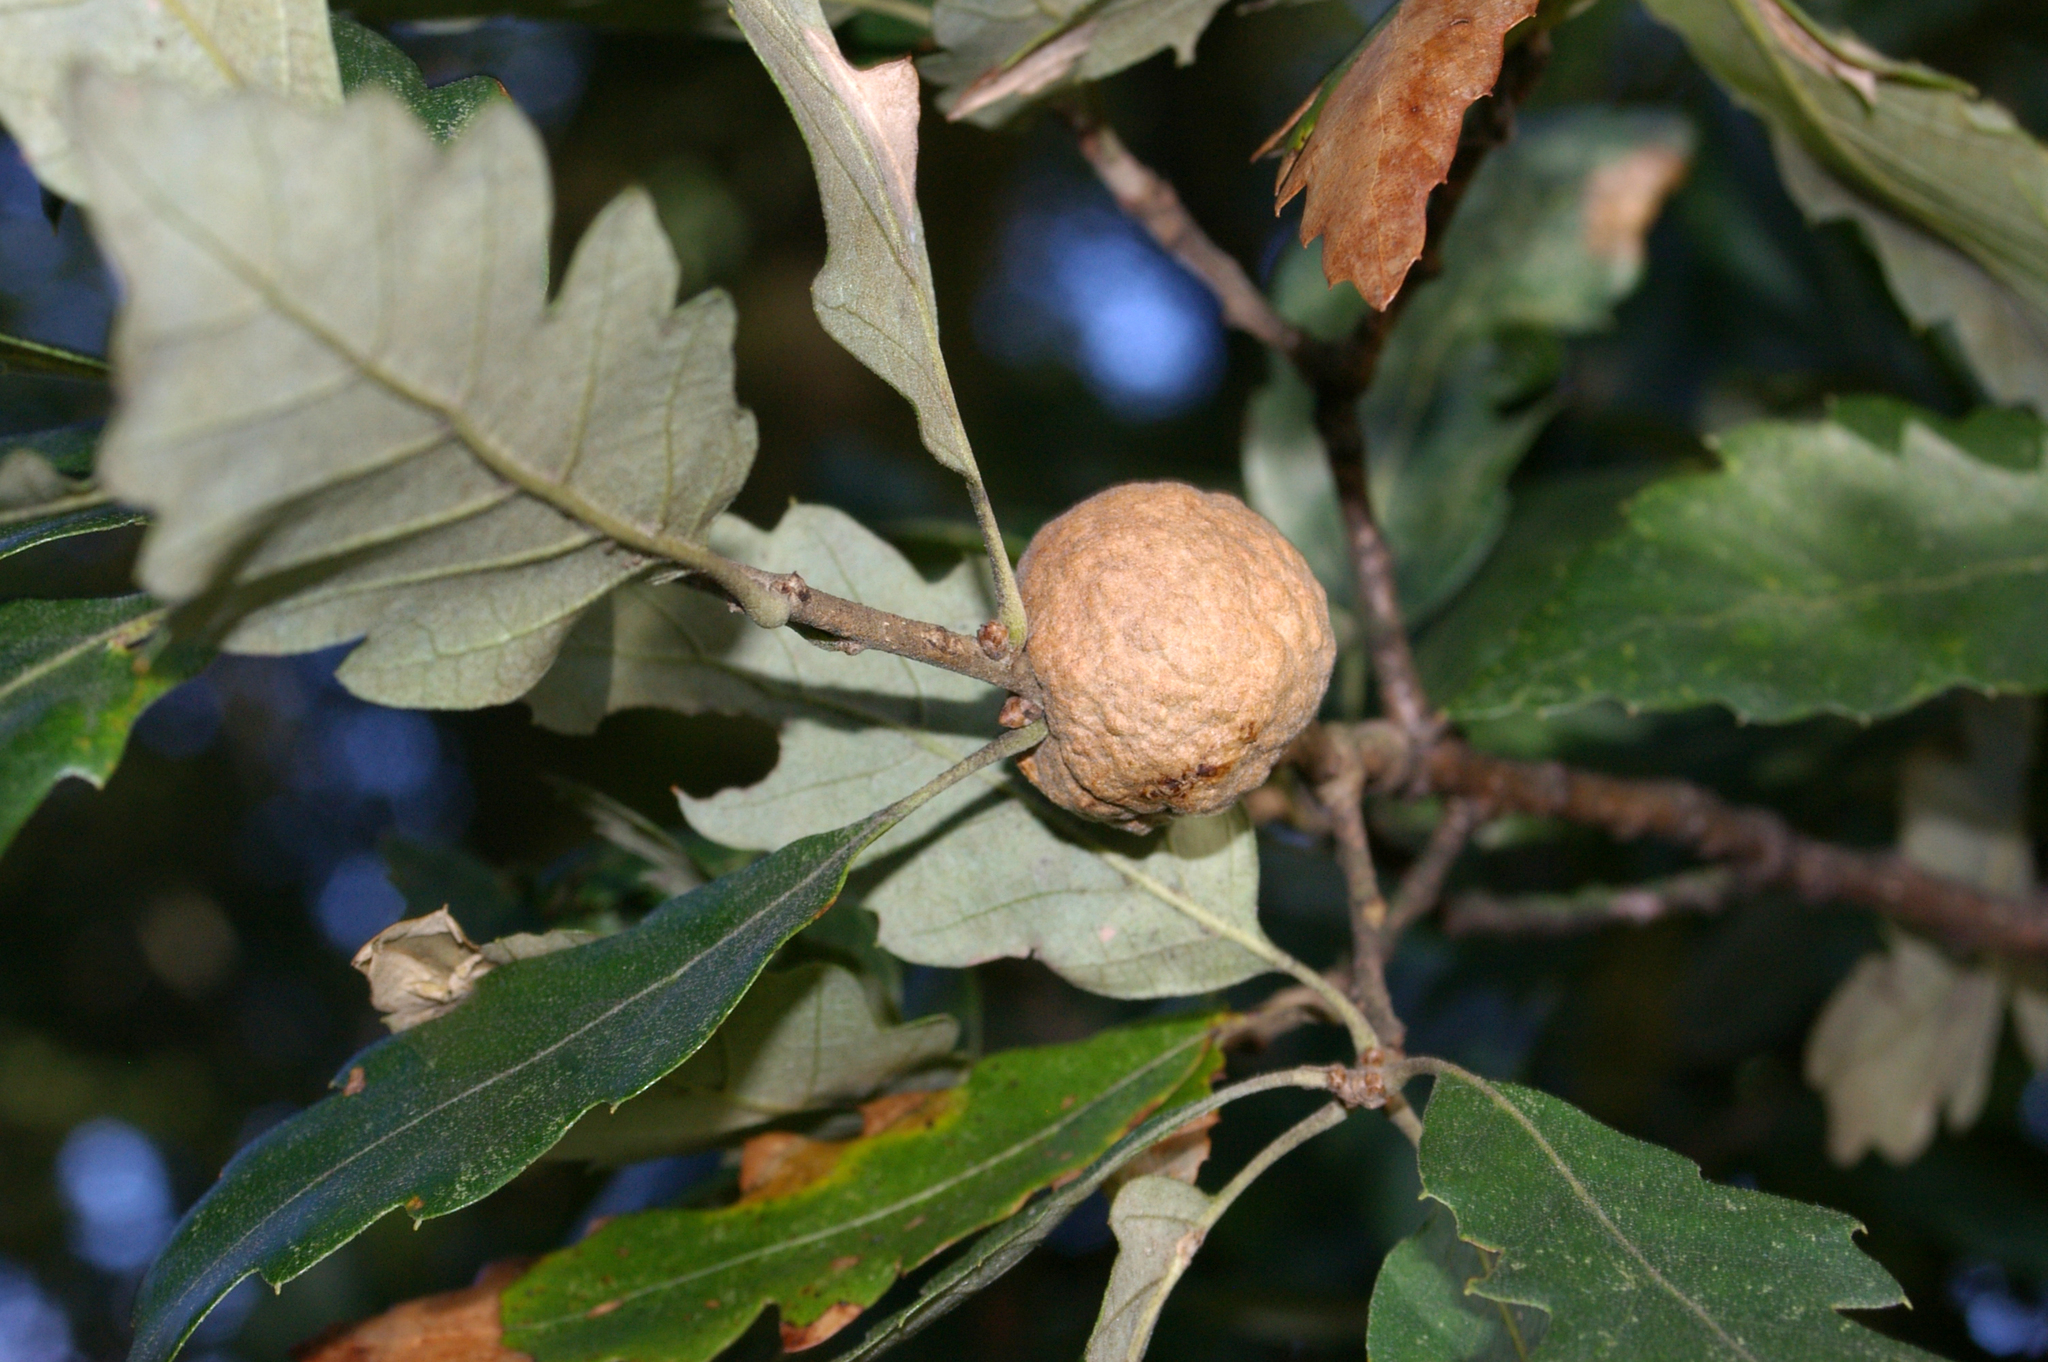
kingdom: Animalia
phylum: Arthropoda
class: Insecta
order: Hymenoptera
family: Cynipidae
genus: Aphelonyx
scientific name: Aphelonyx cerricola
